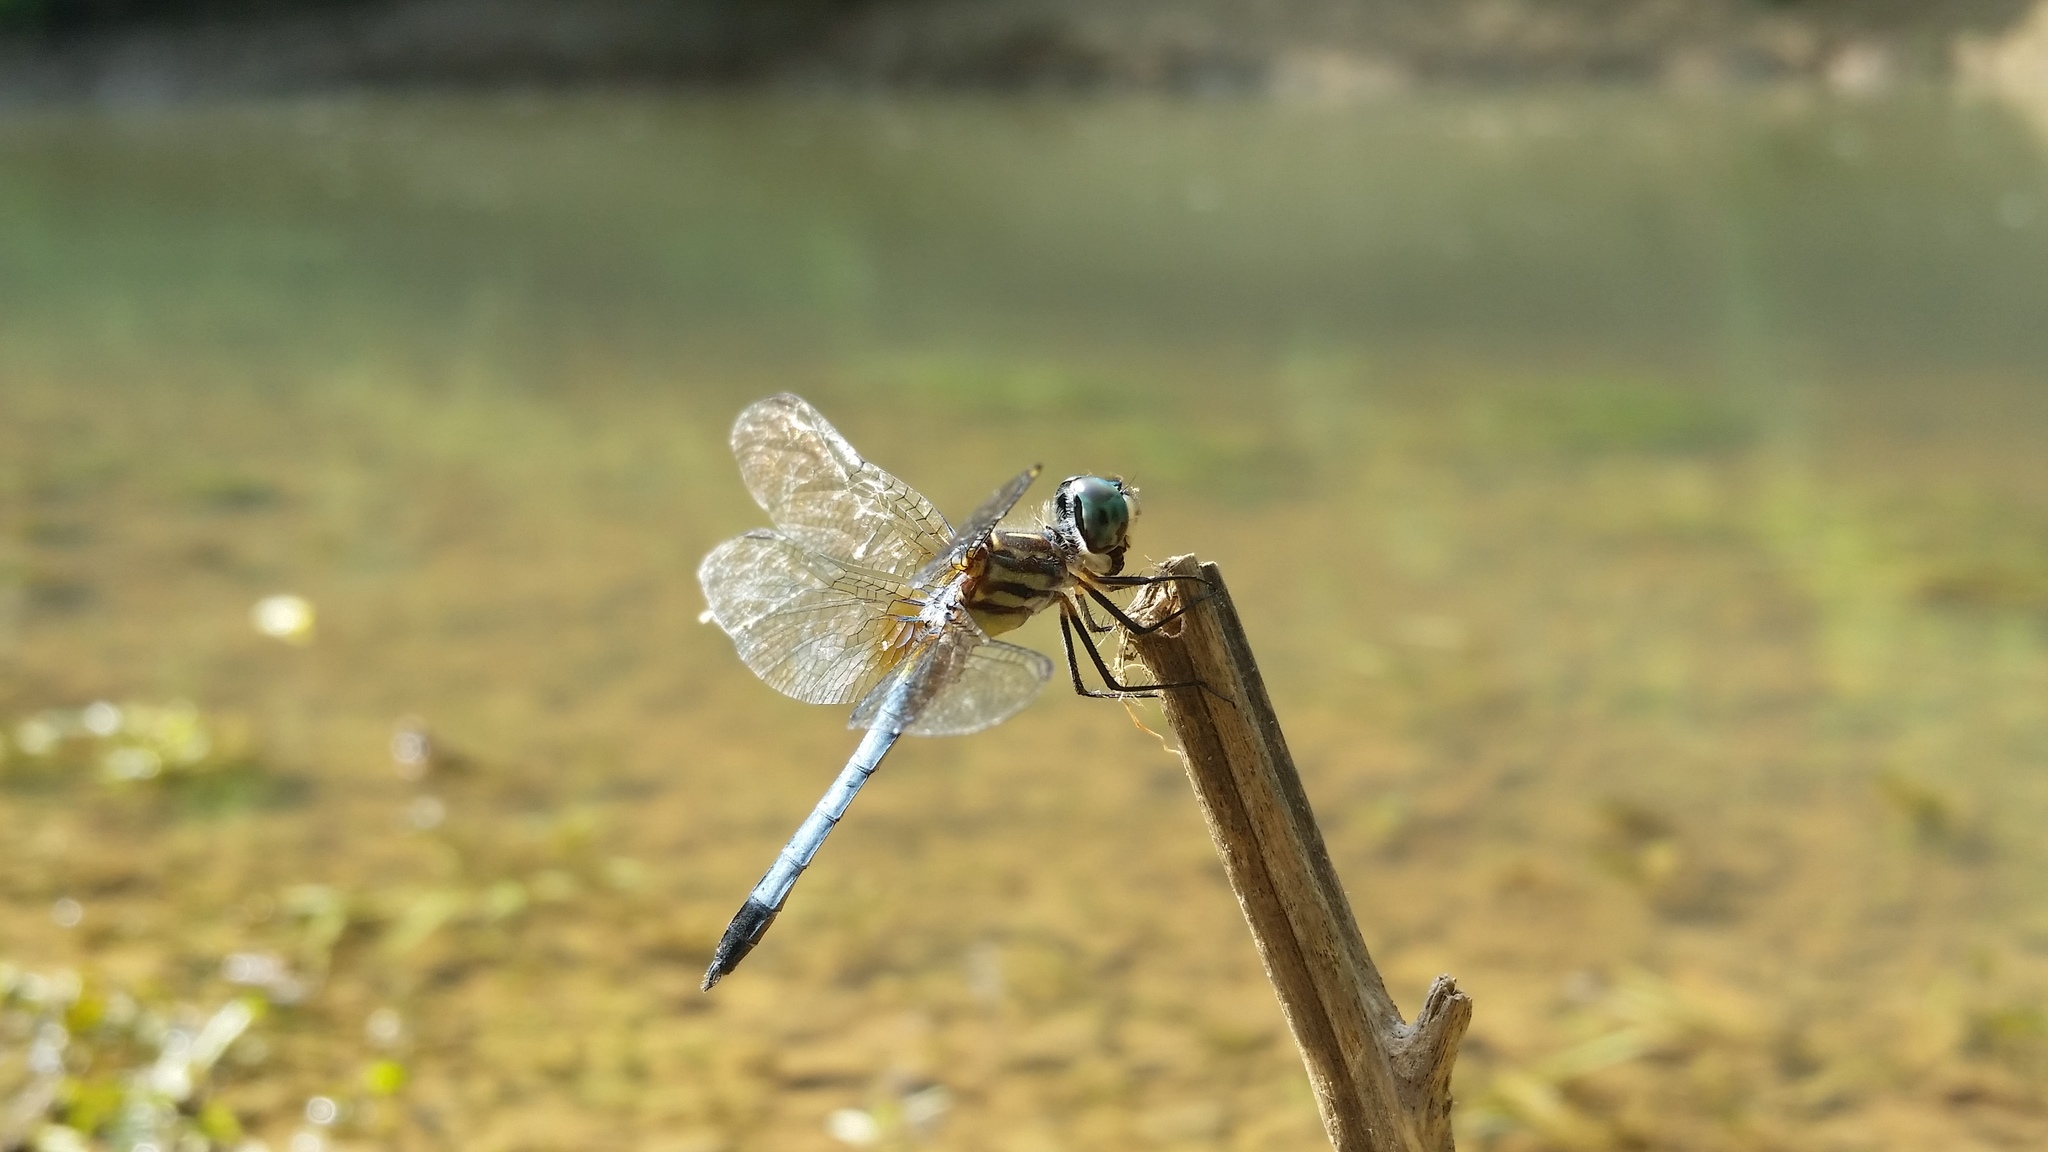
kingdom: Animalia
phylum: Arthropoda
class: Insecta
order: Odonata
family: Libellulidae
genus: Pachydiplax
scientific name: Pachydiplax longipennis
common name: Blue dasher
